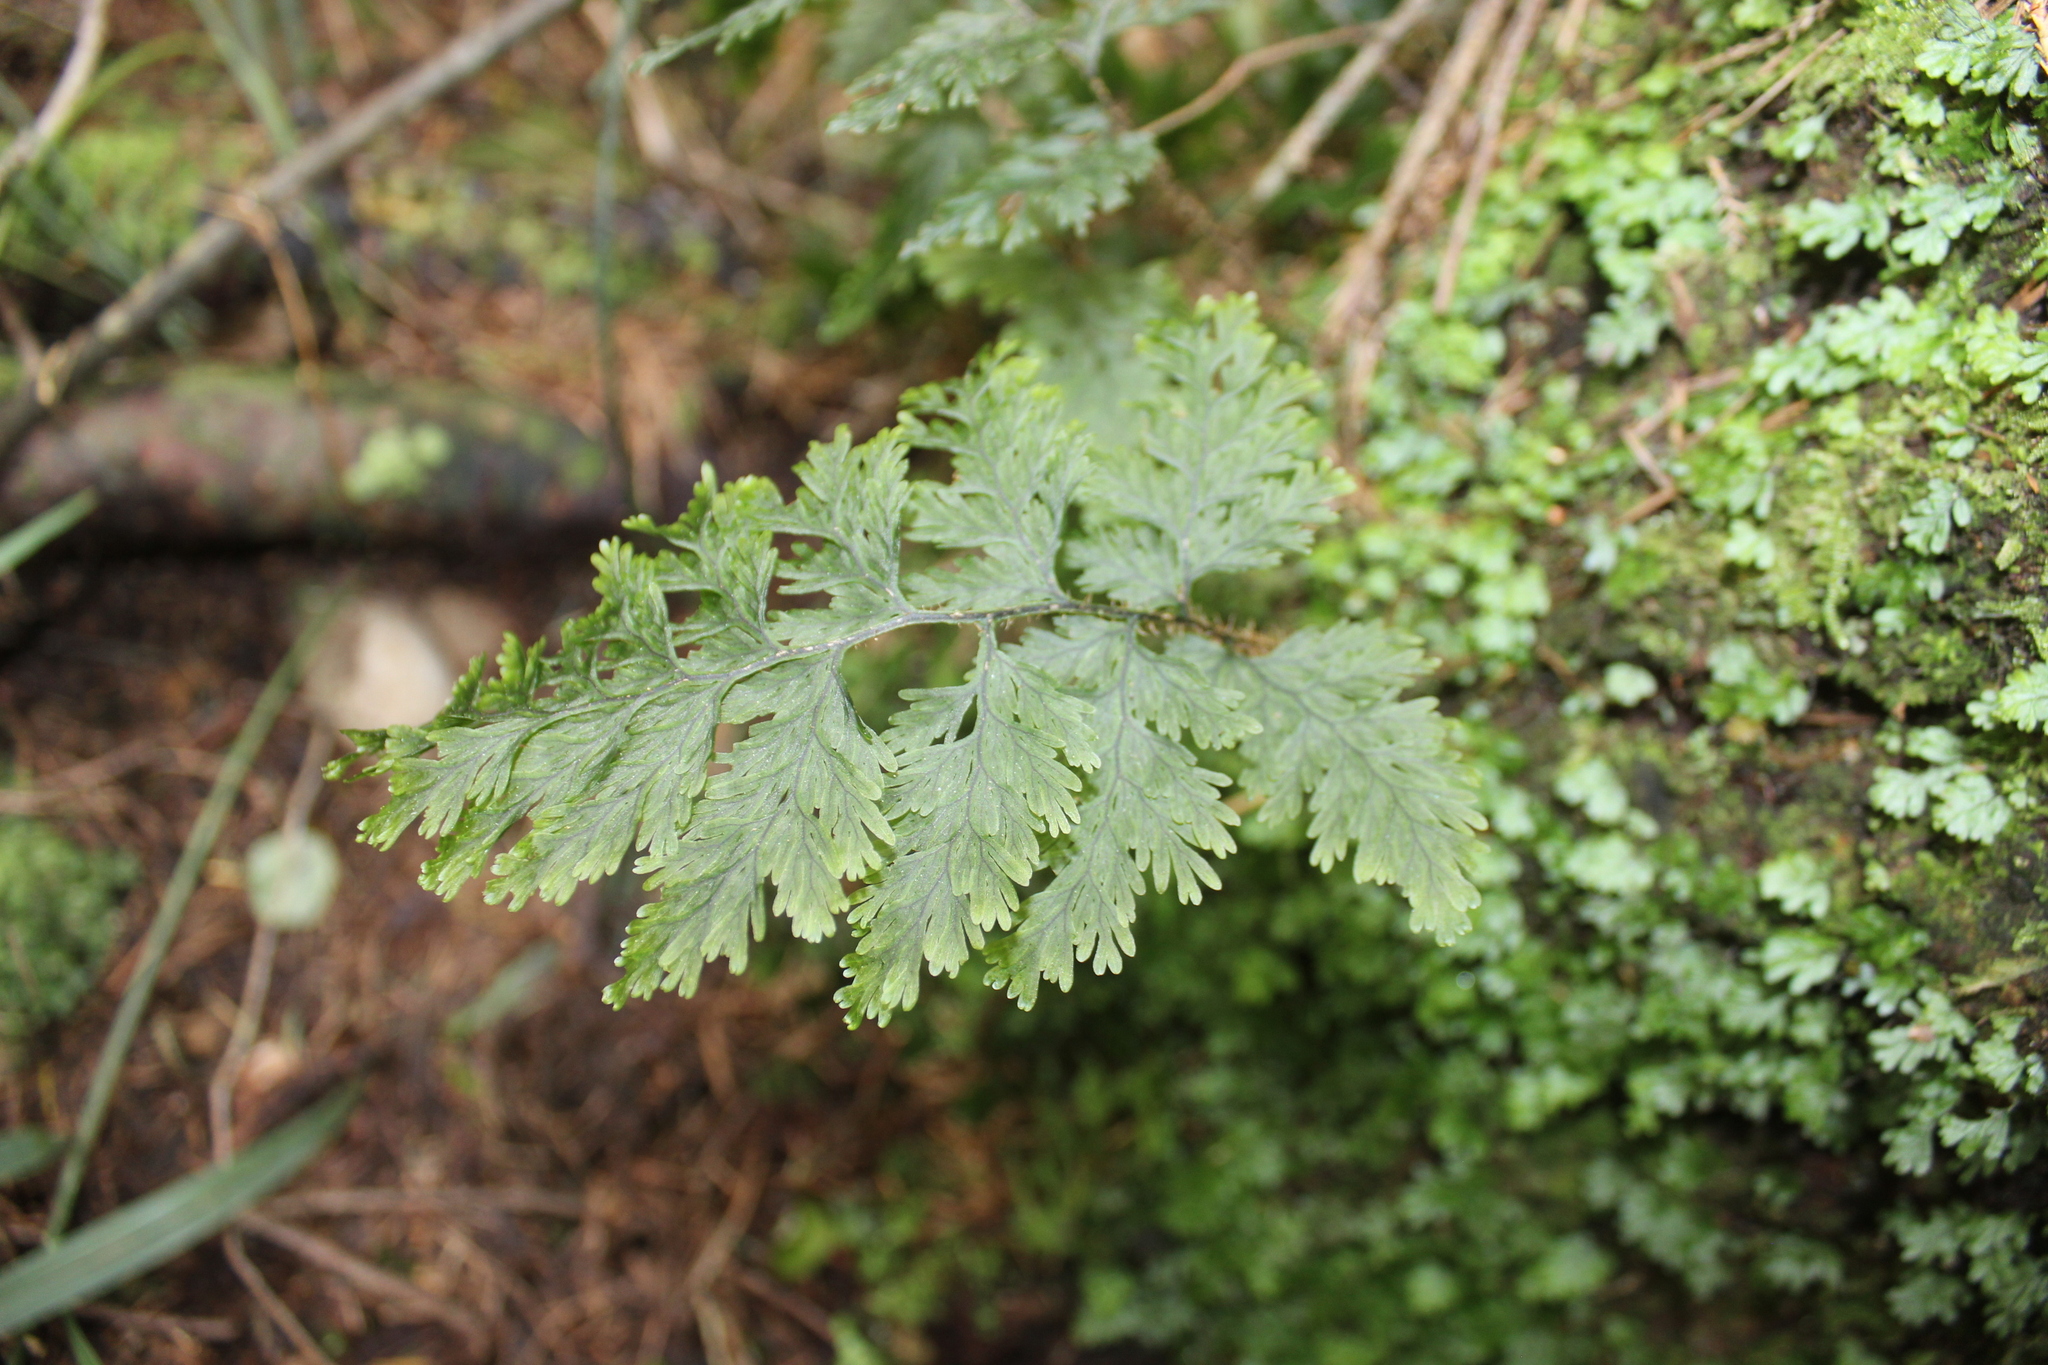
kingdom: Plantae
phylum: Tracheophyta
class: Polypodiopsida
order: Hymenophyllales
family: Hymenophyllaceae
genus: Hymenophyllum
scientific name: Hymenophyllum scabrum
